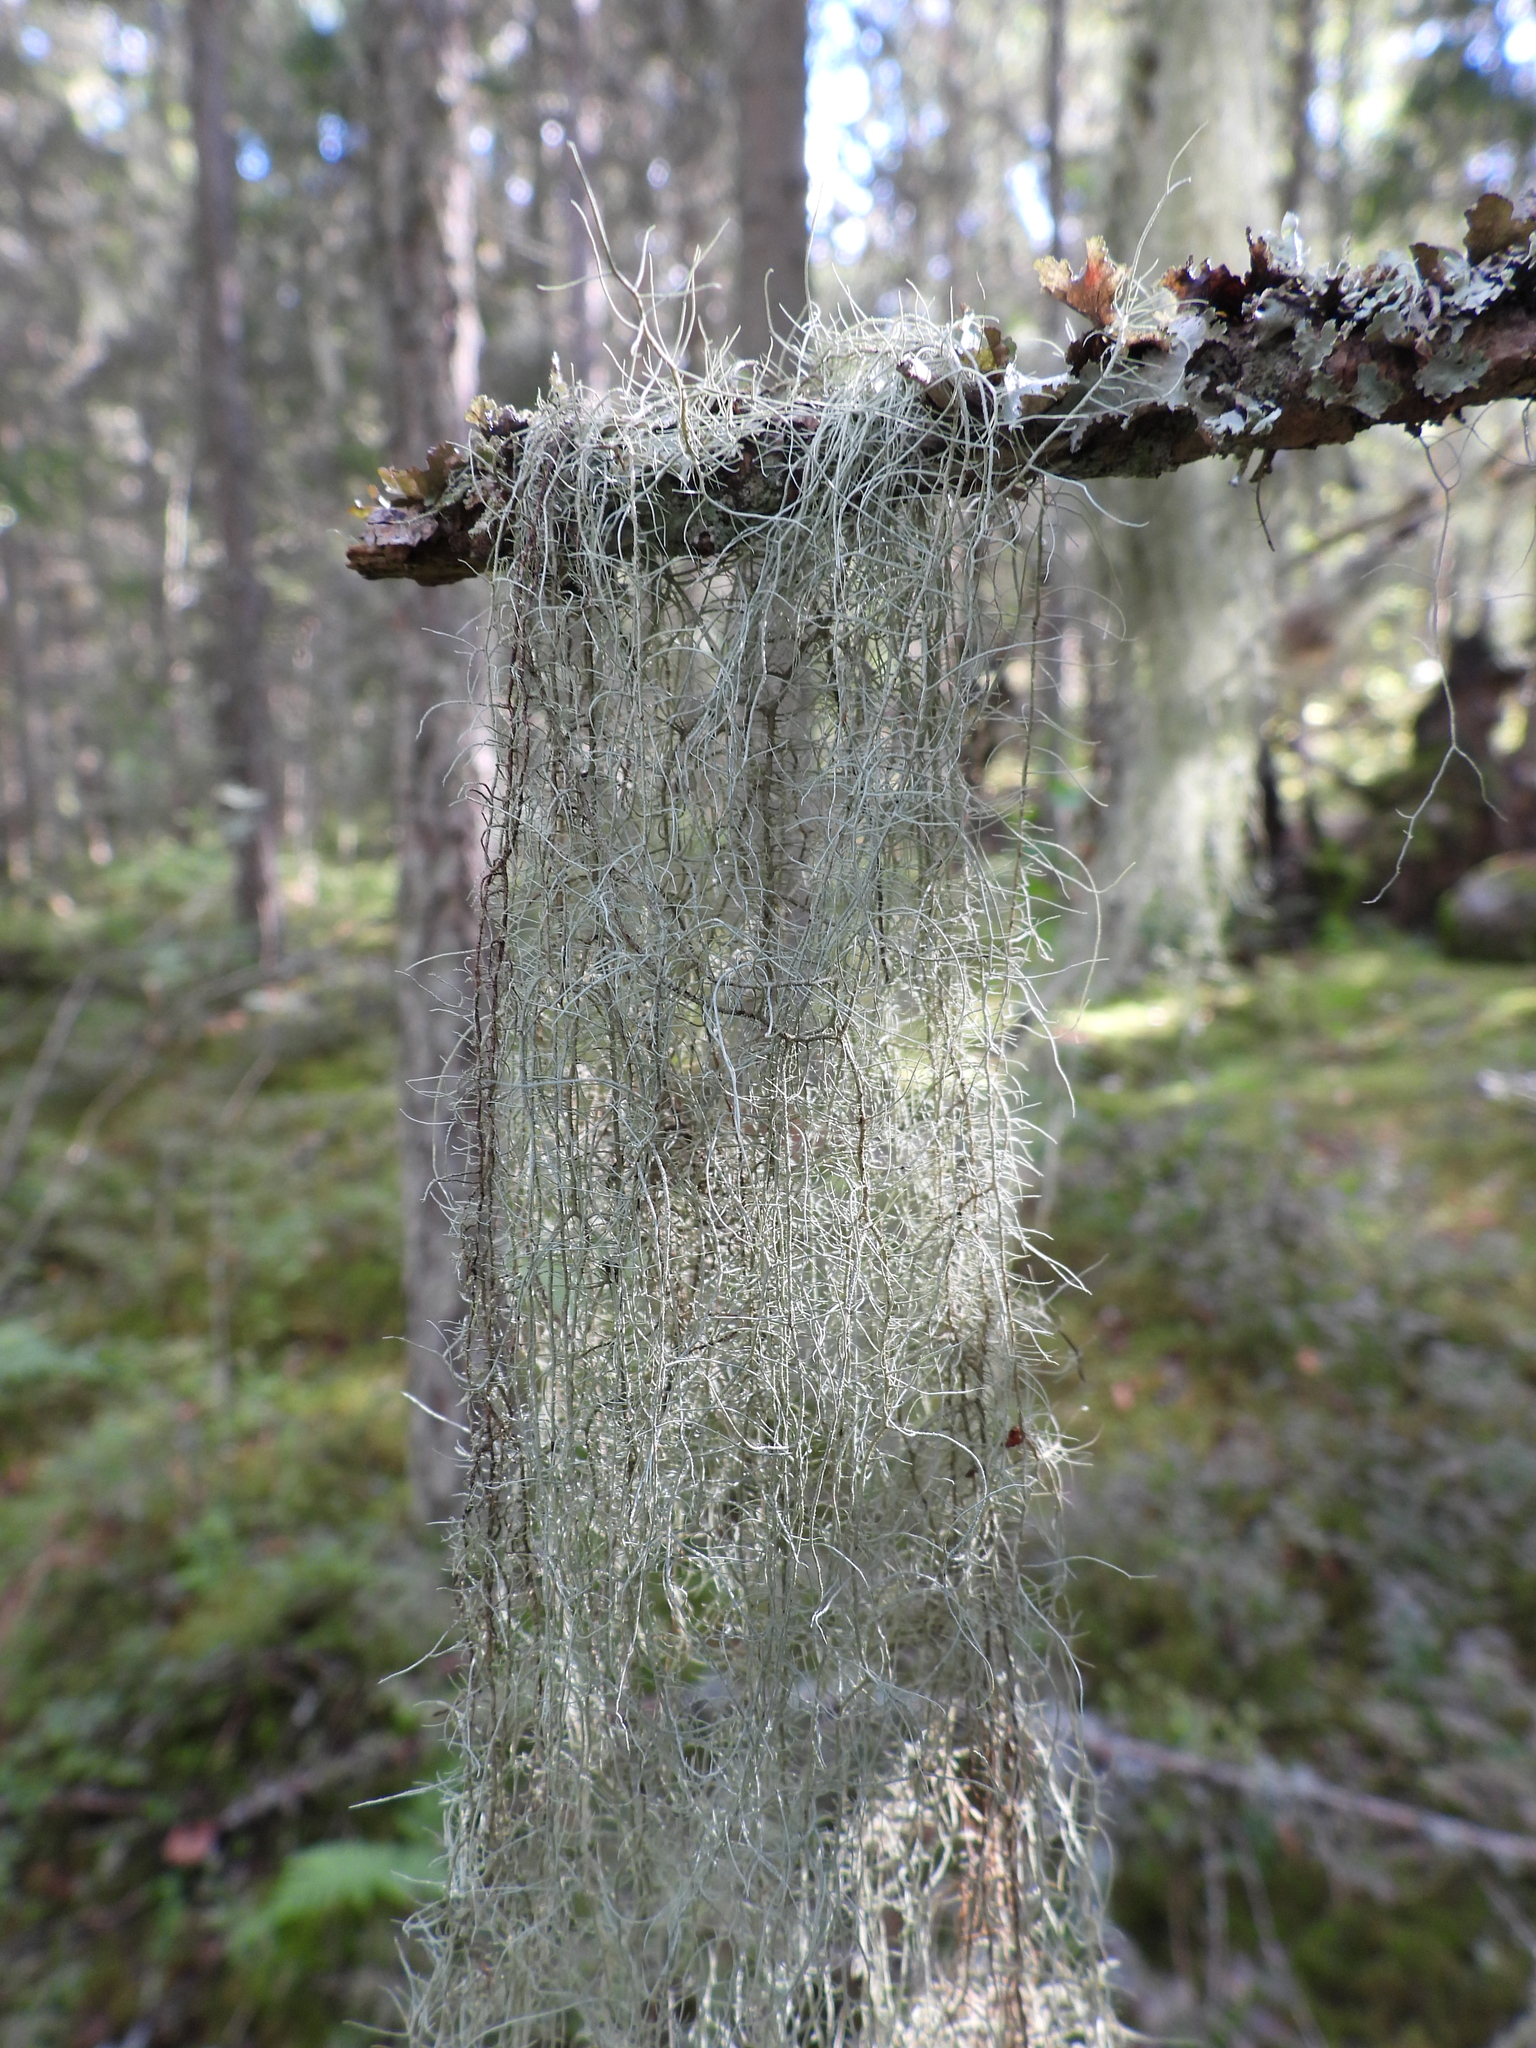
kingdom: Fungi
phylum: Ascomycota
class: Lecanoromycetes
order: Lecanorales
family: Parmeliaceae
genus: Usnea
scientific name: Usnea dasopoga
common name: Fishbone beard lichen
